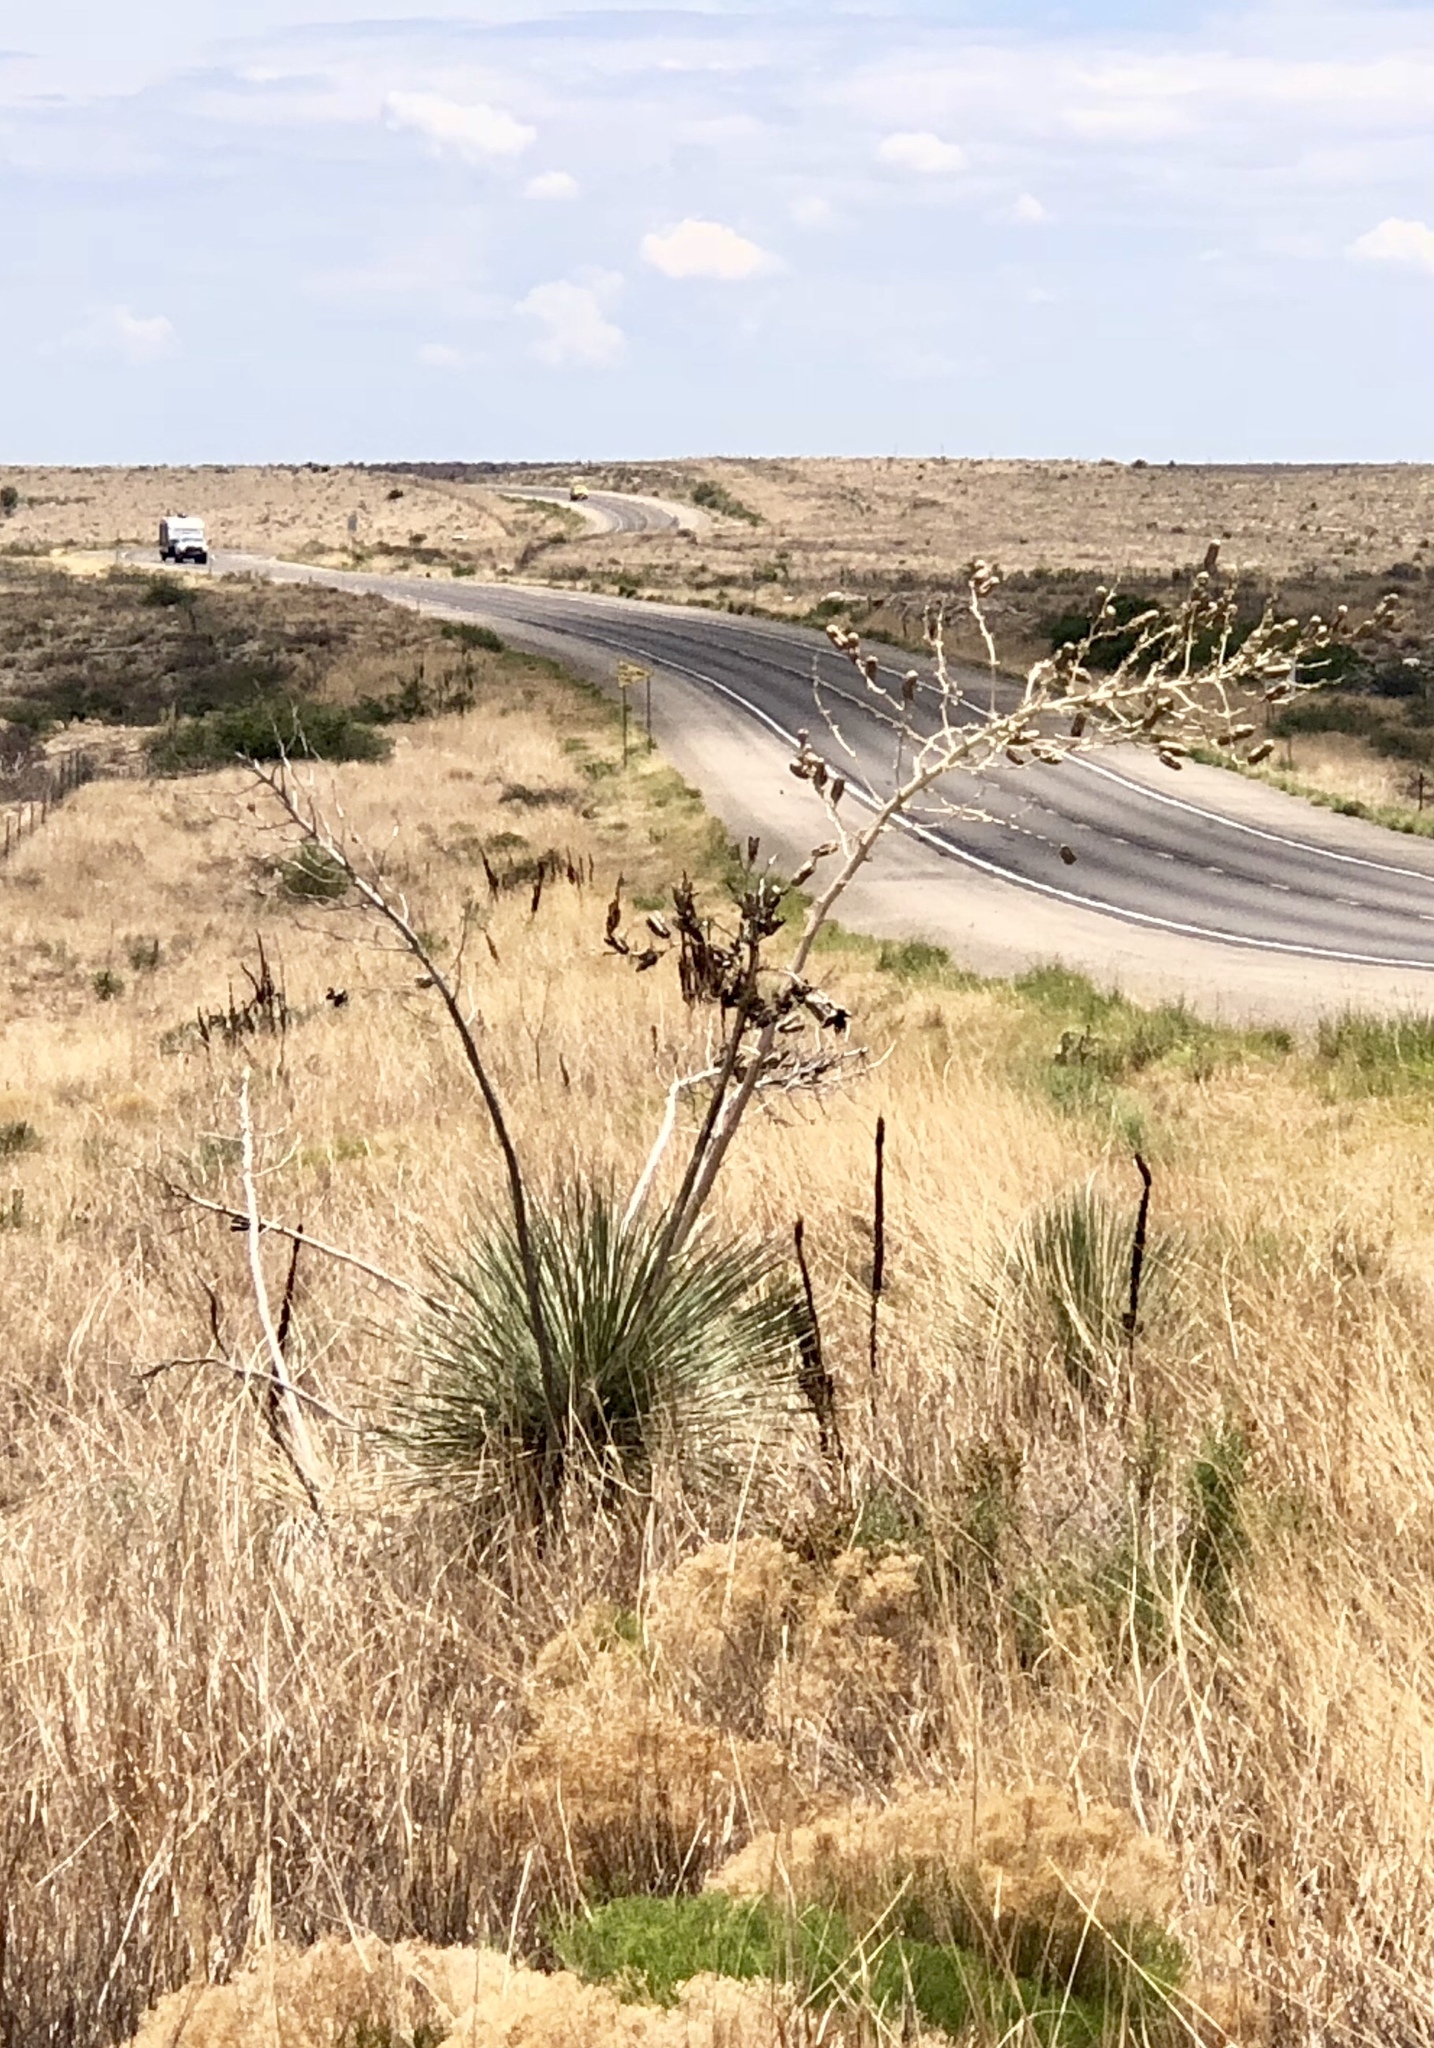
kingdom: Plantae
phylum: Tracheophyta
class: Liliopsida
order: Asparagales
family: Asparagaceae
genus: Yucca
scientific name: Yucca elata
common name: Palmella
